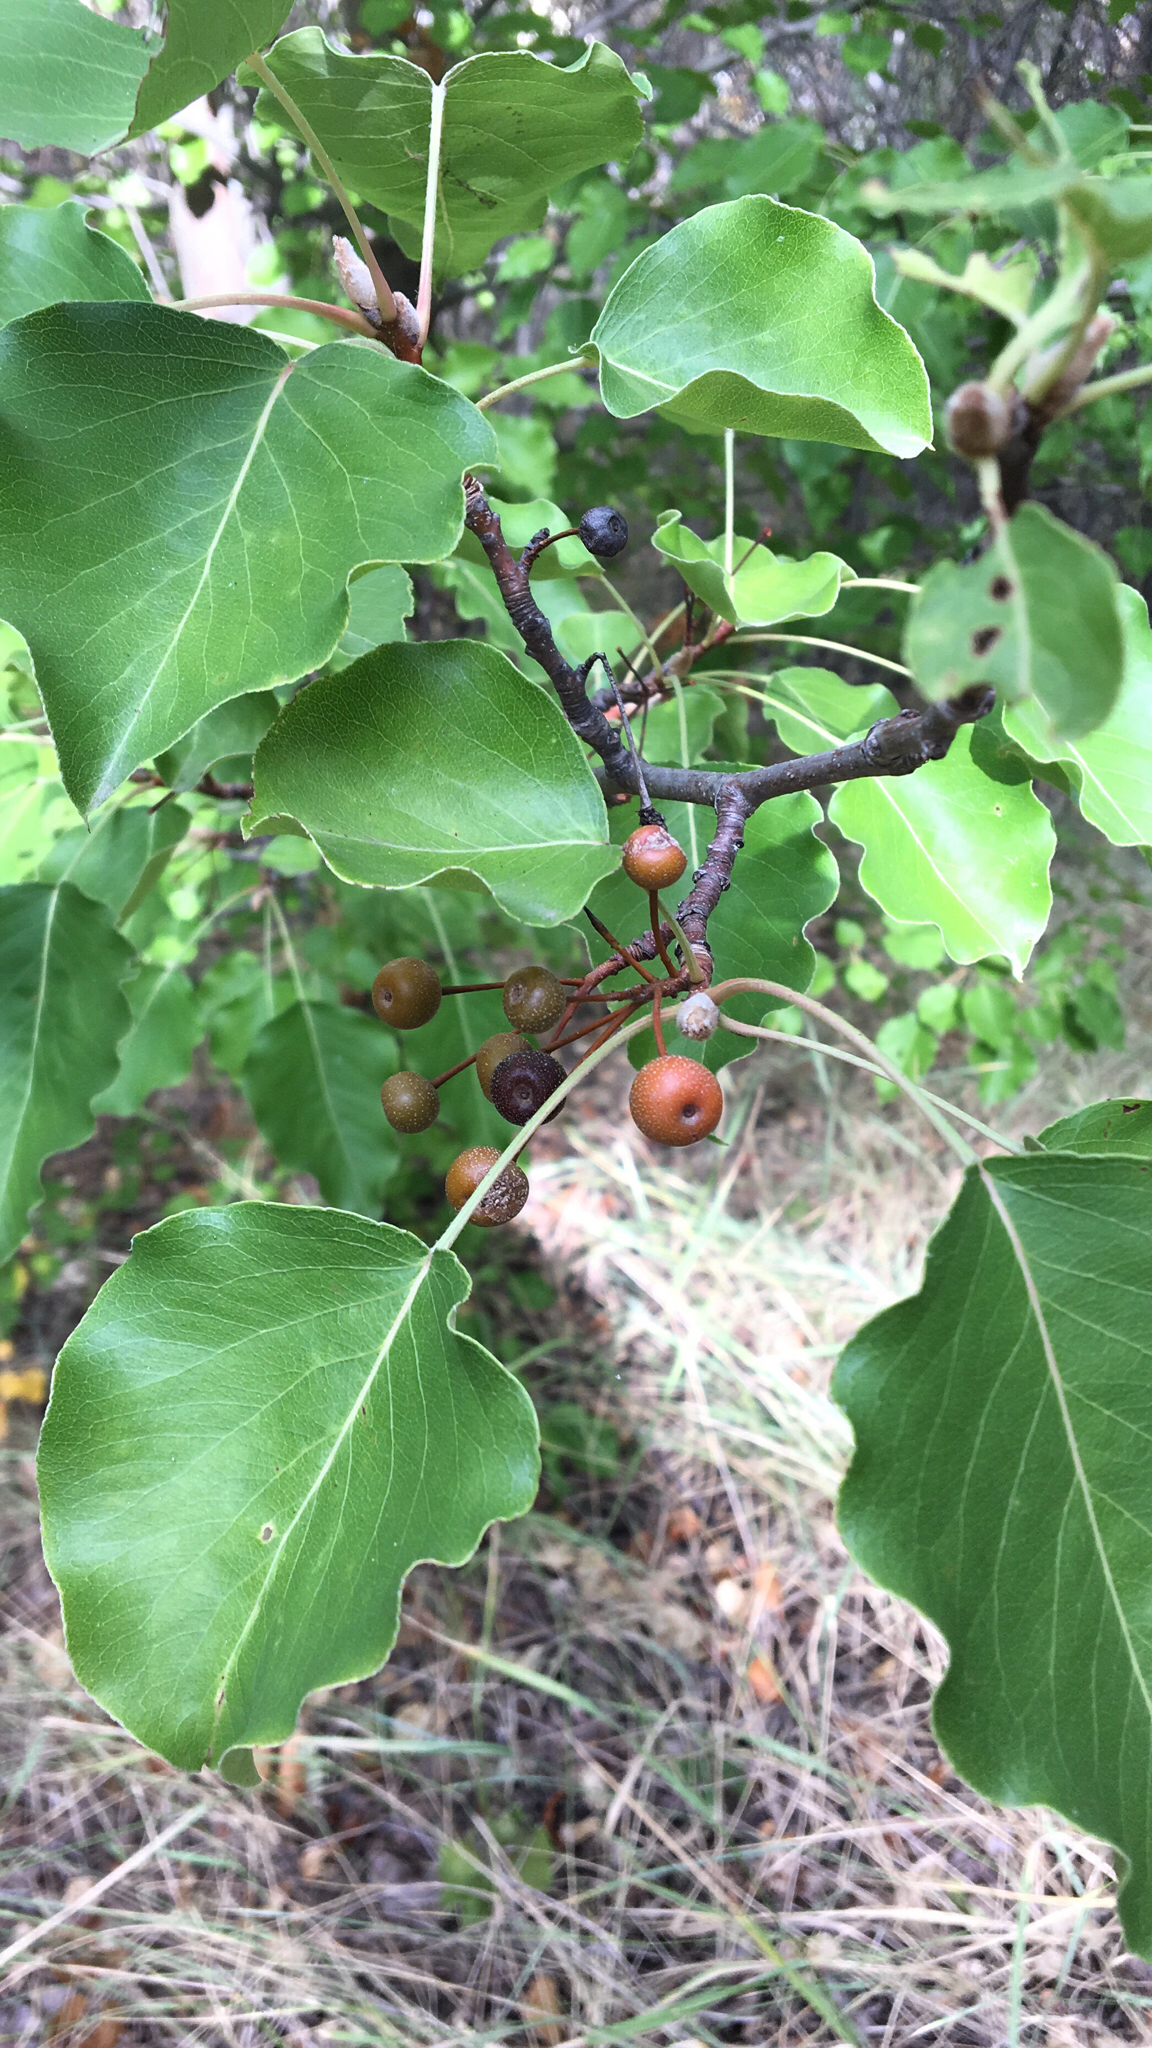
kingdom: Plantae
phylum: Tracheophyta
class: Magnoliopsida
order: Rosales
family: Rosaceae
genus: Pyrus
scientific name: Pyrus calleryana
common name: Callery pear
